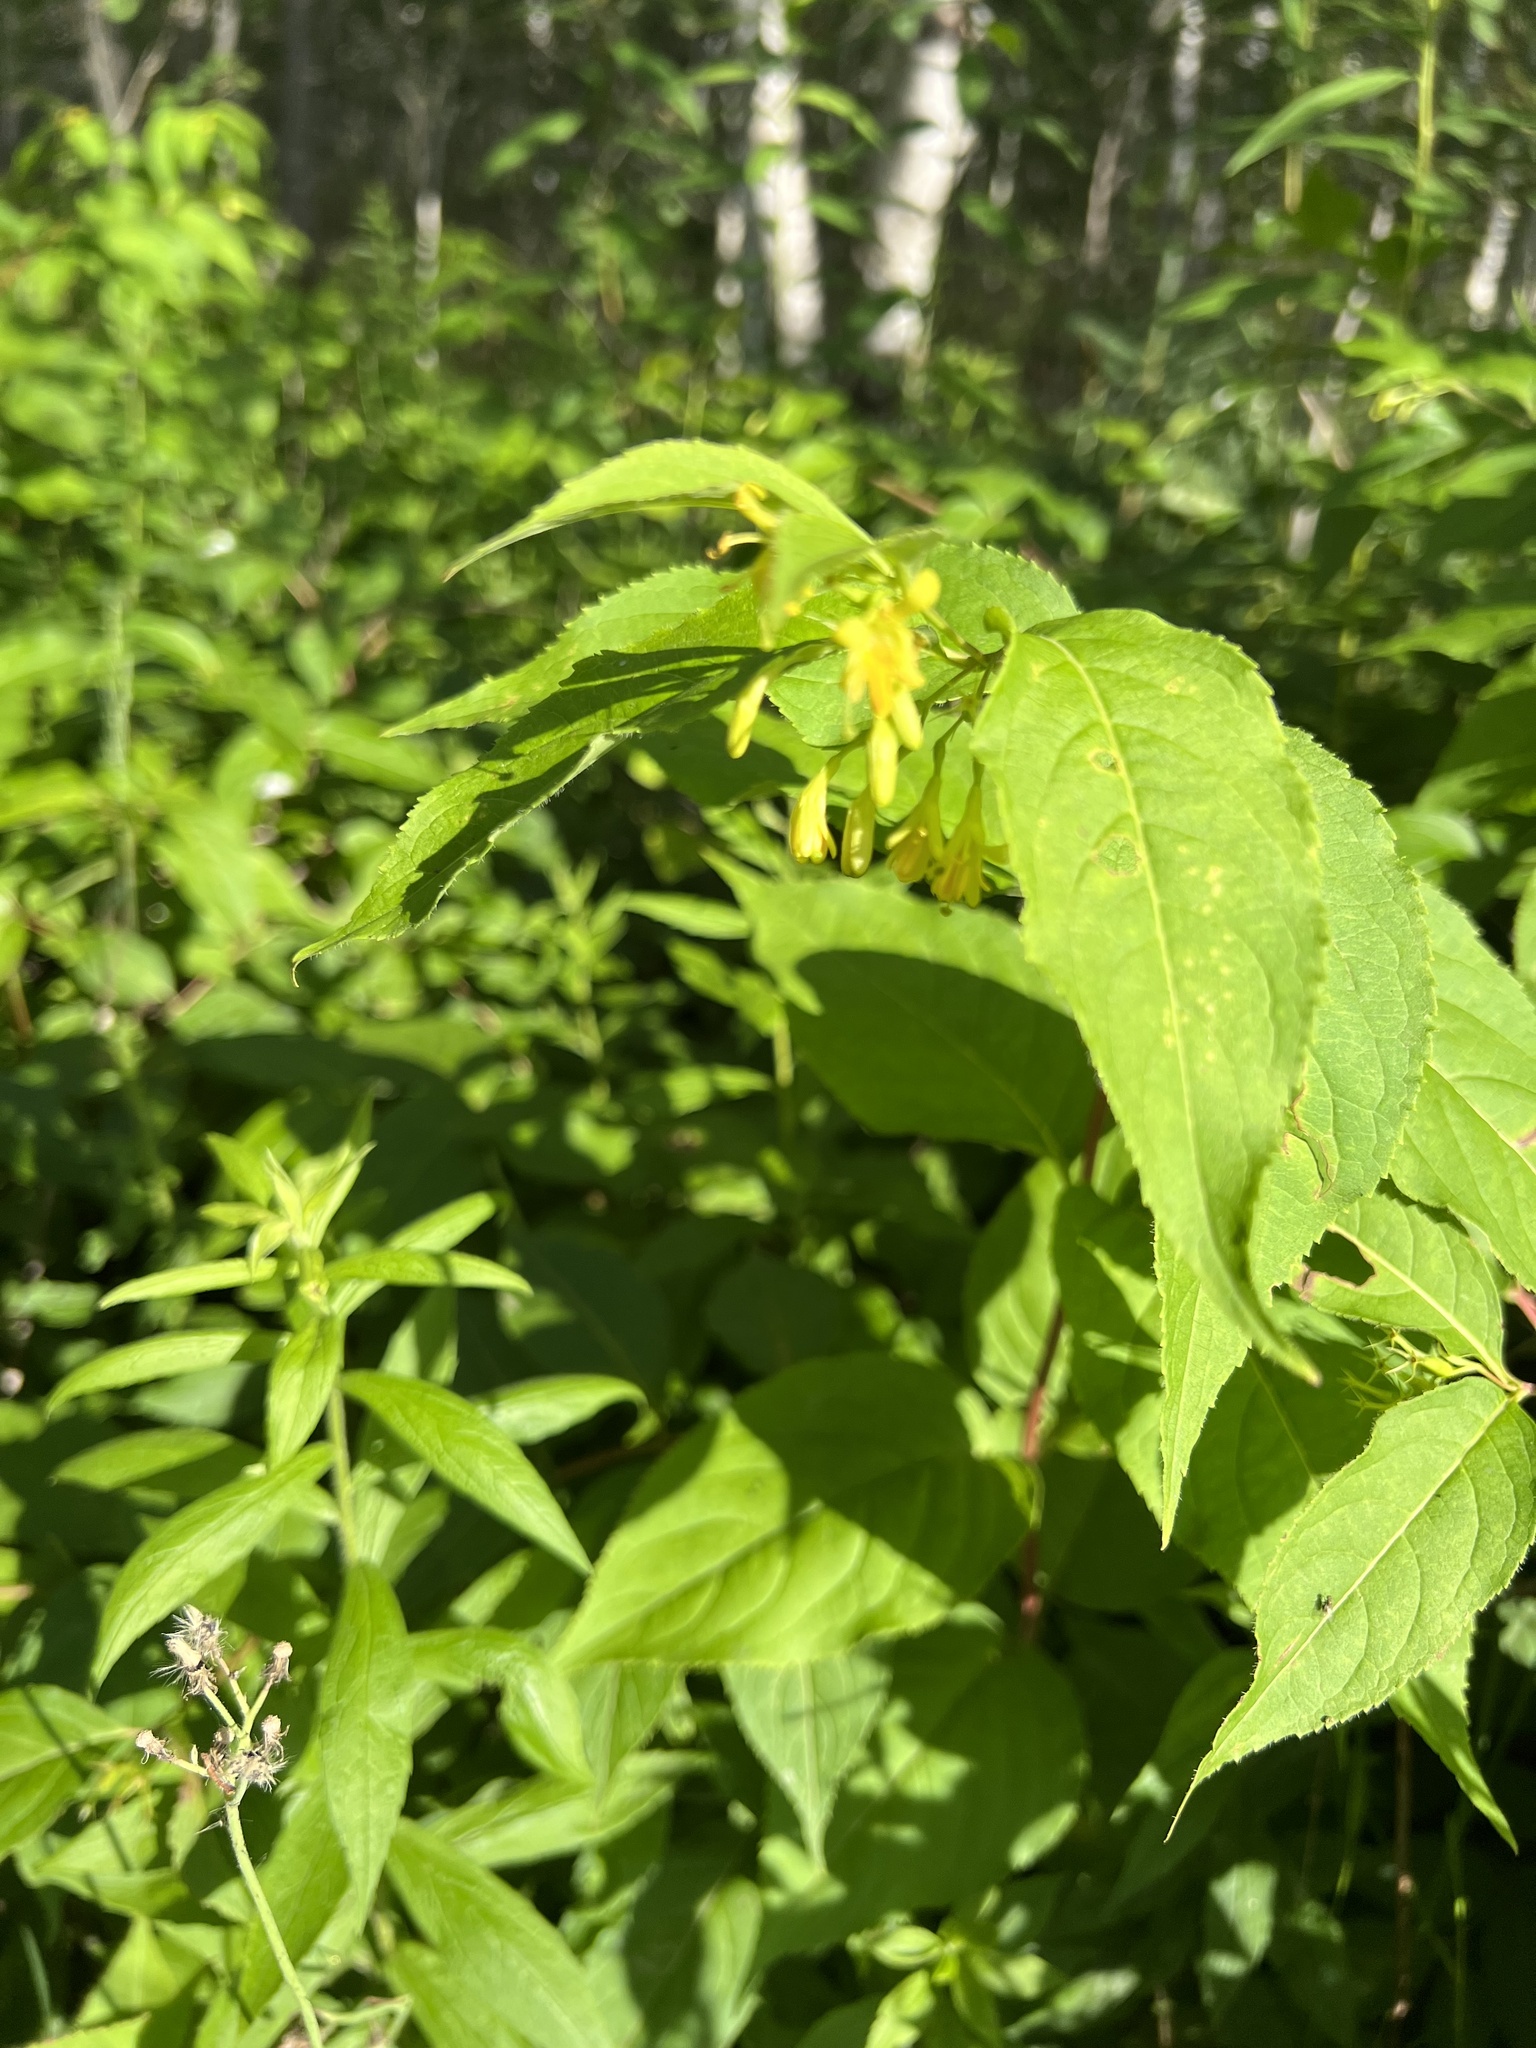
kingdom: Plantae
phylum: Tracheophyta
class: Magnoliopsida
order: Dipsacales
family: Caprifoliaceae
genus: Diervilla
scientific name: Diervilla lonicera
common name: Bush-honeysuckle
